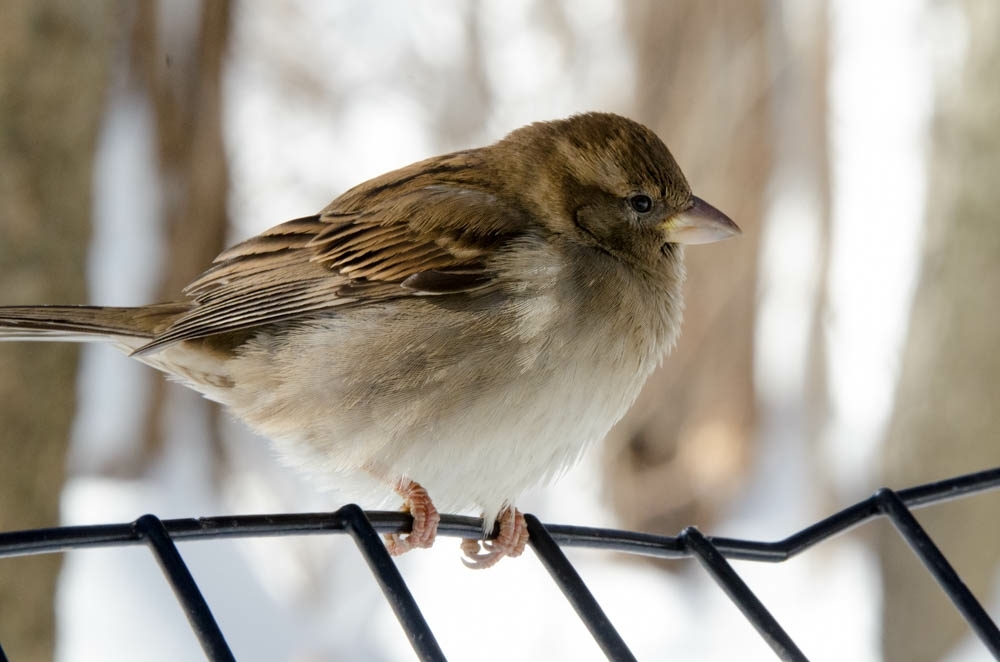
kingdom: Animalia
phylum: Chordata
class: Aves
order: Passeriformes
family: Passeridae
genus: Passer
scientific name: Passer domesticus
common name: House sparrow
